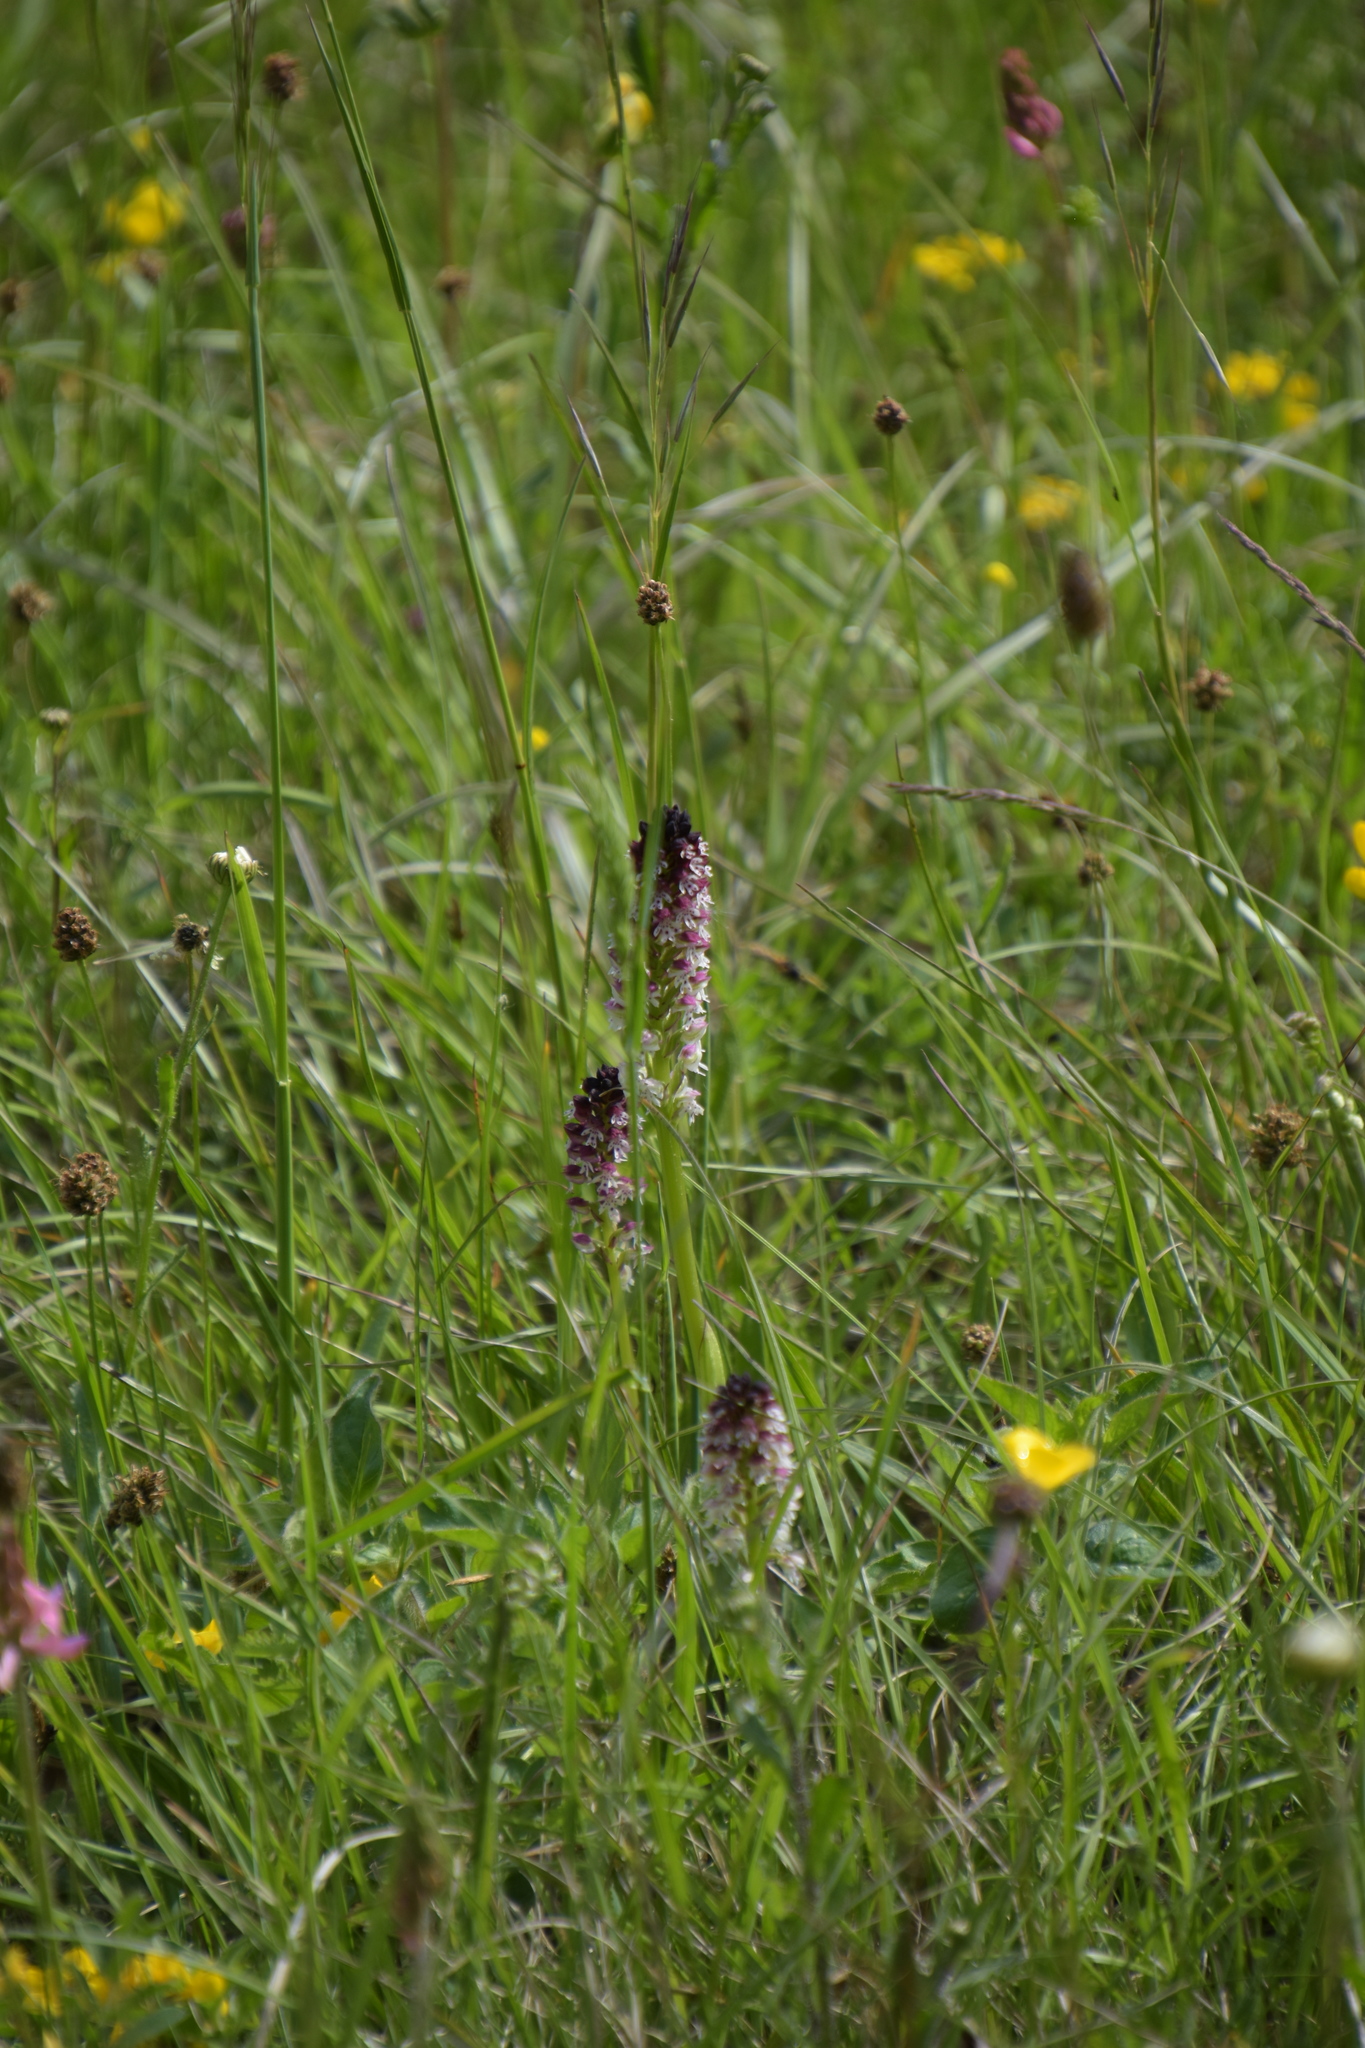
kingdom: Plantae
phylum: Tracheophyta
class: Liliopsida
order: Asparagales
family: Orchidaceae
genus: Neotinea
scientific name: Neotinea ustulata
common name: Burnt orchid
